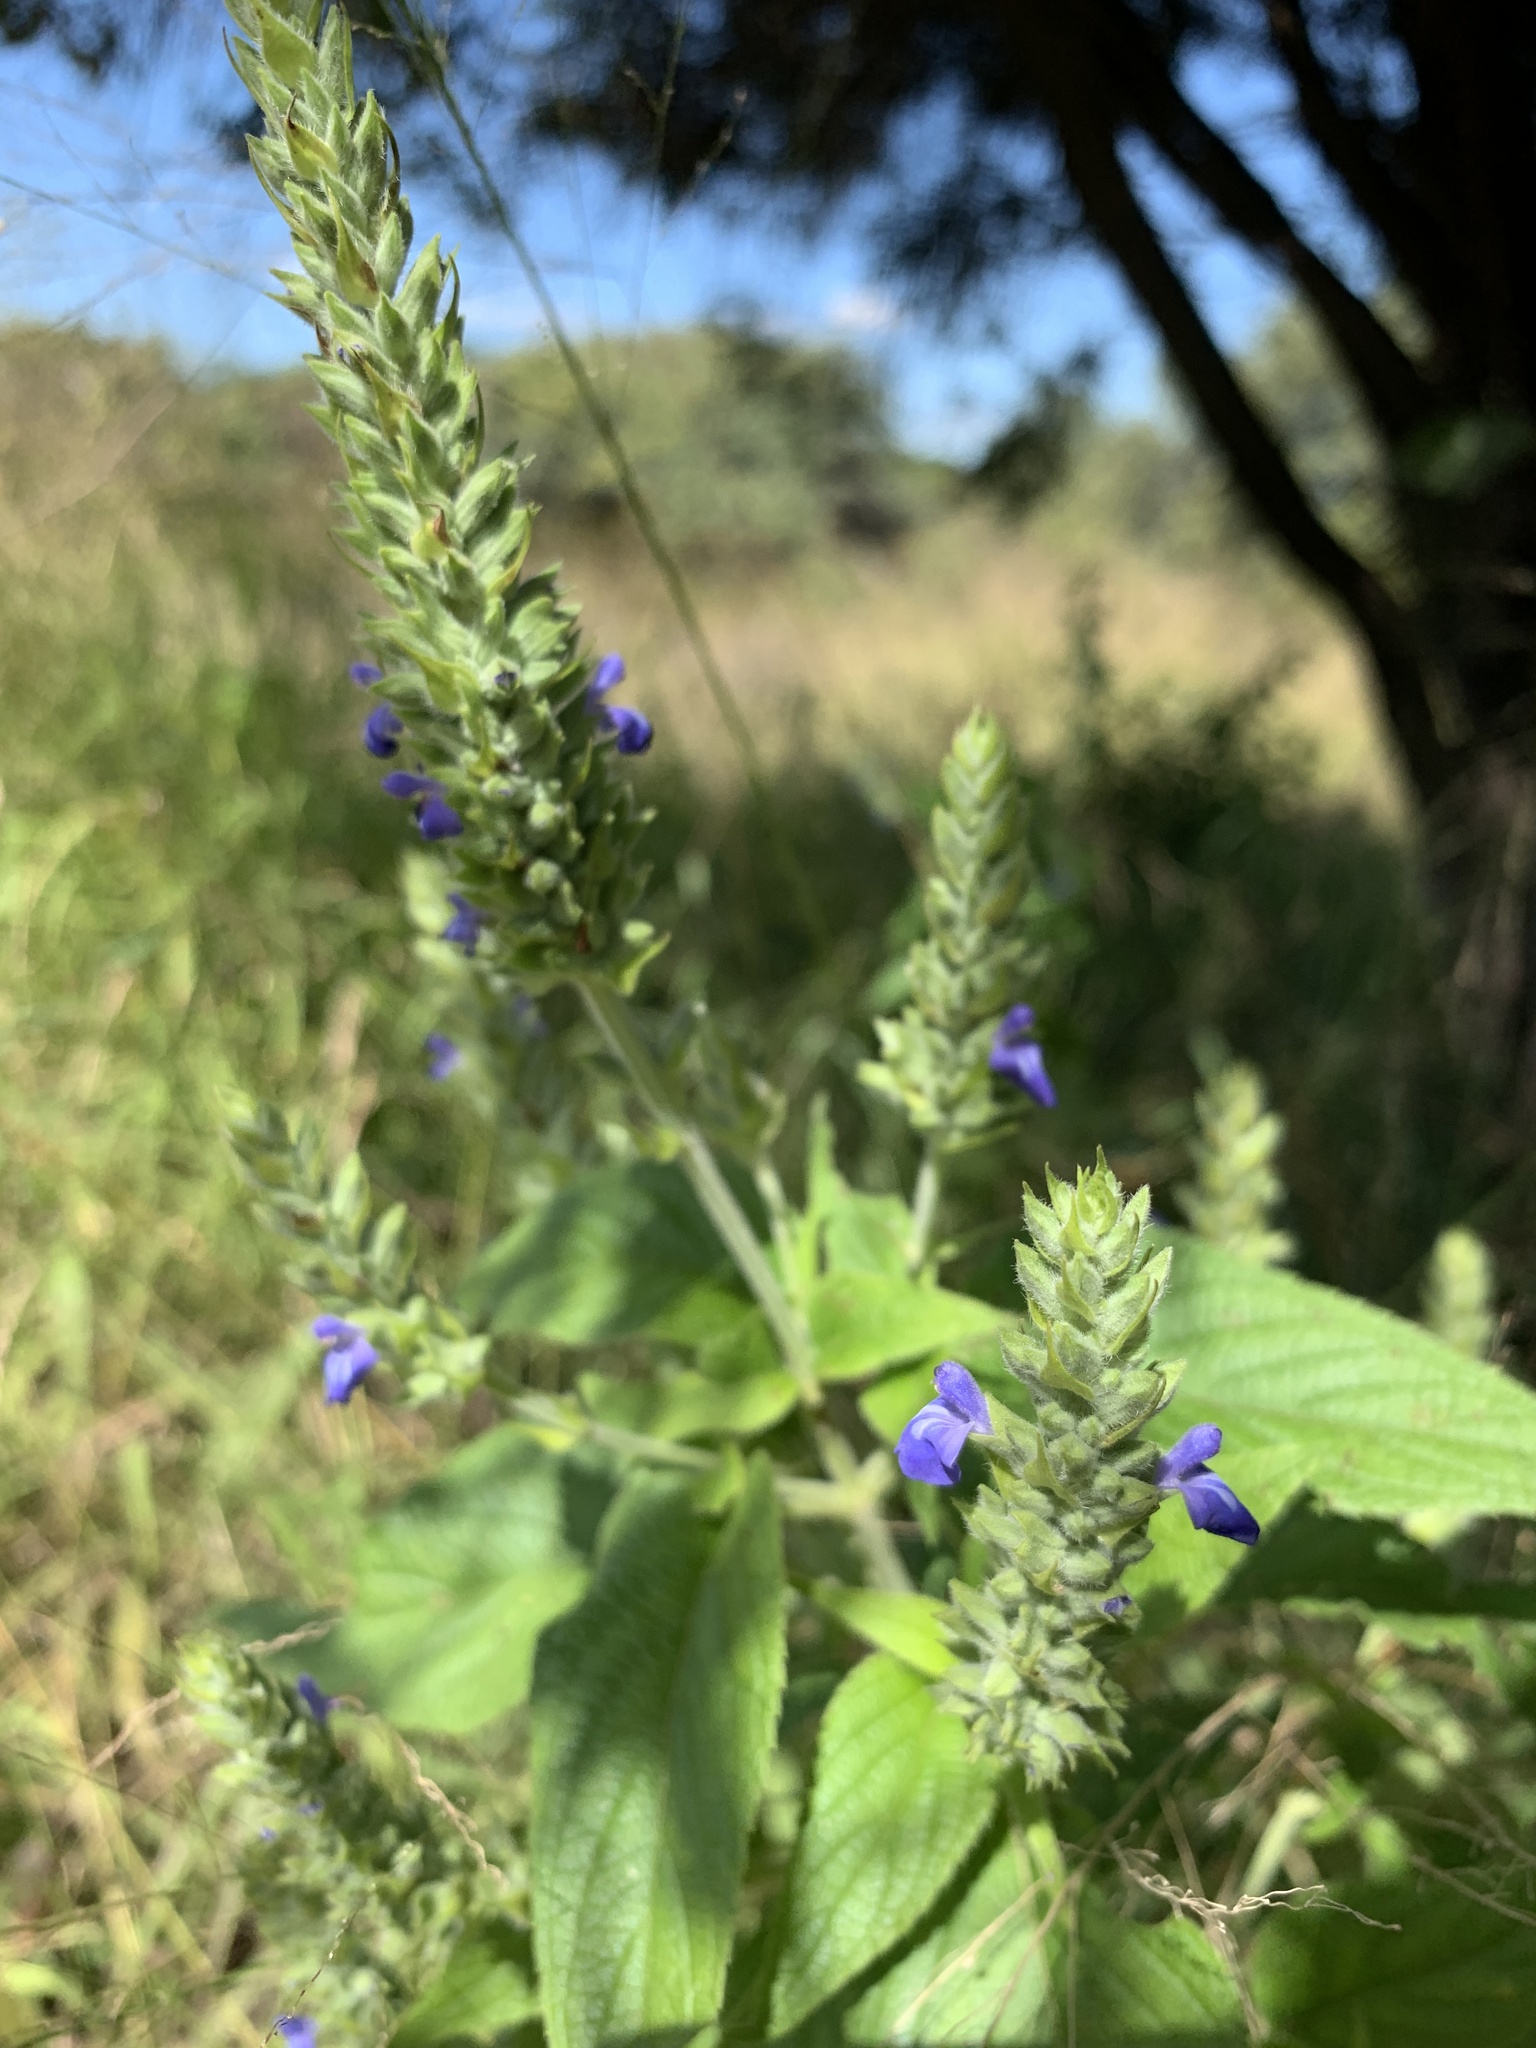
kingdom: Plantae
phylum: Tracheophyta
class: Magnoliopsida
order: Lamiales
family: Lamiaceae
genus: Salvia
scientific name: Salvia hispanica
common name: Chia
